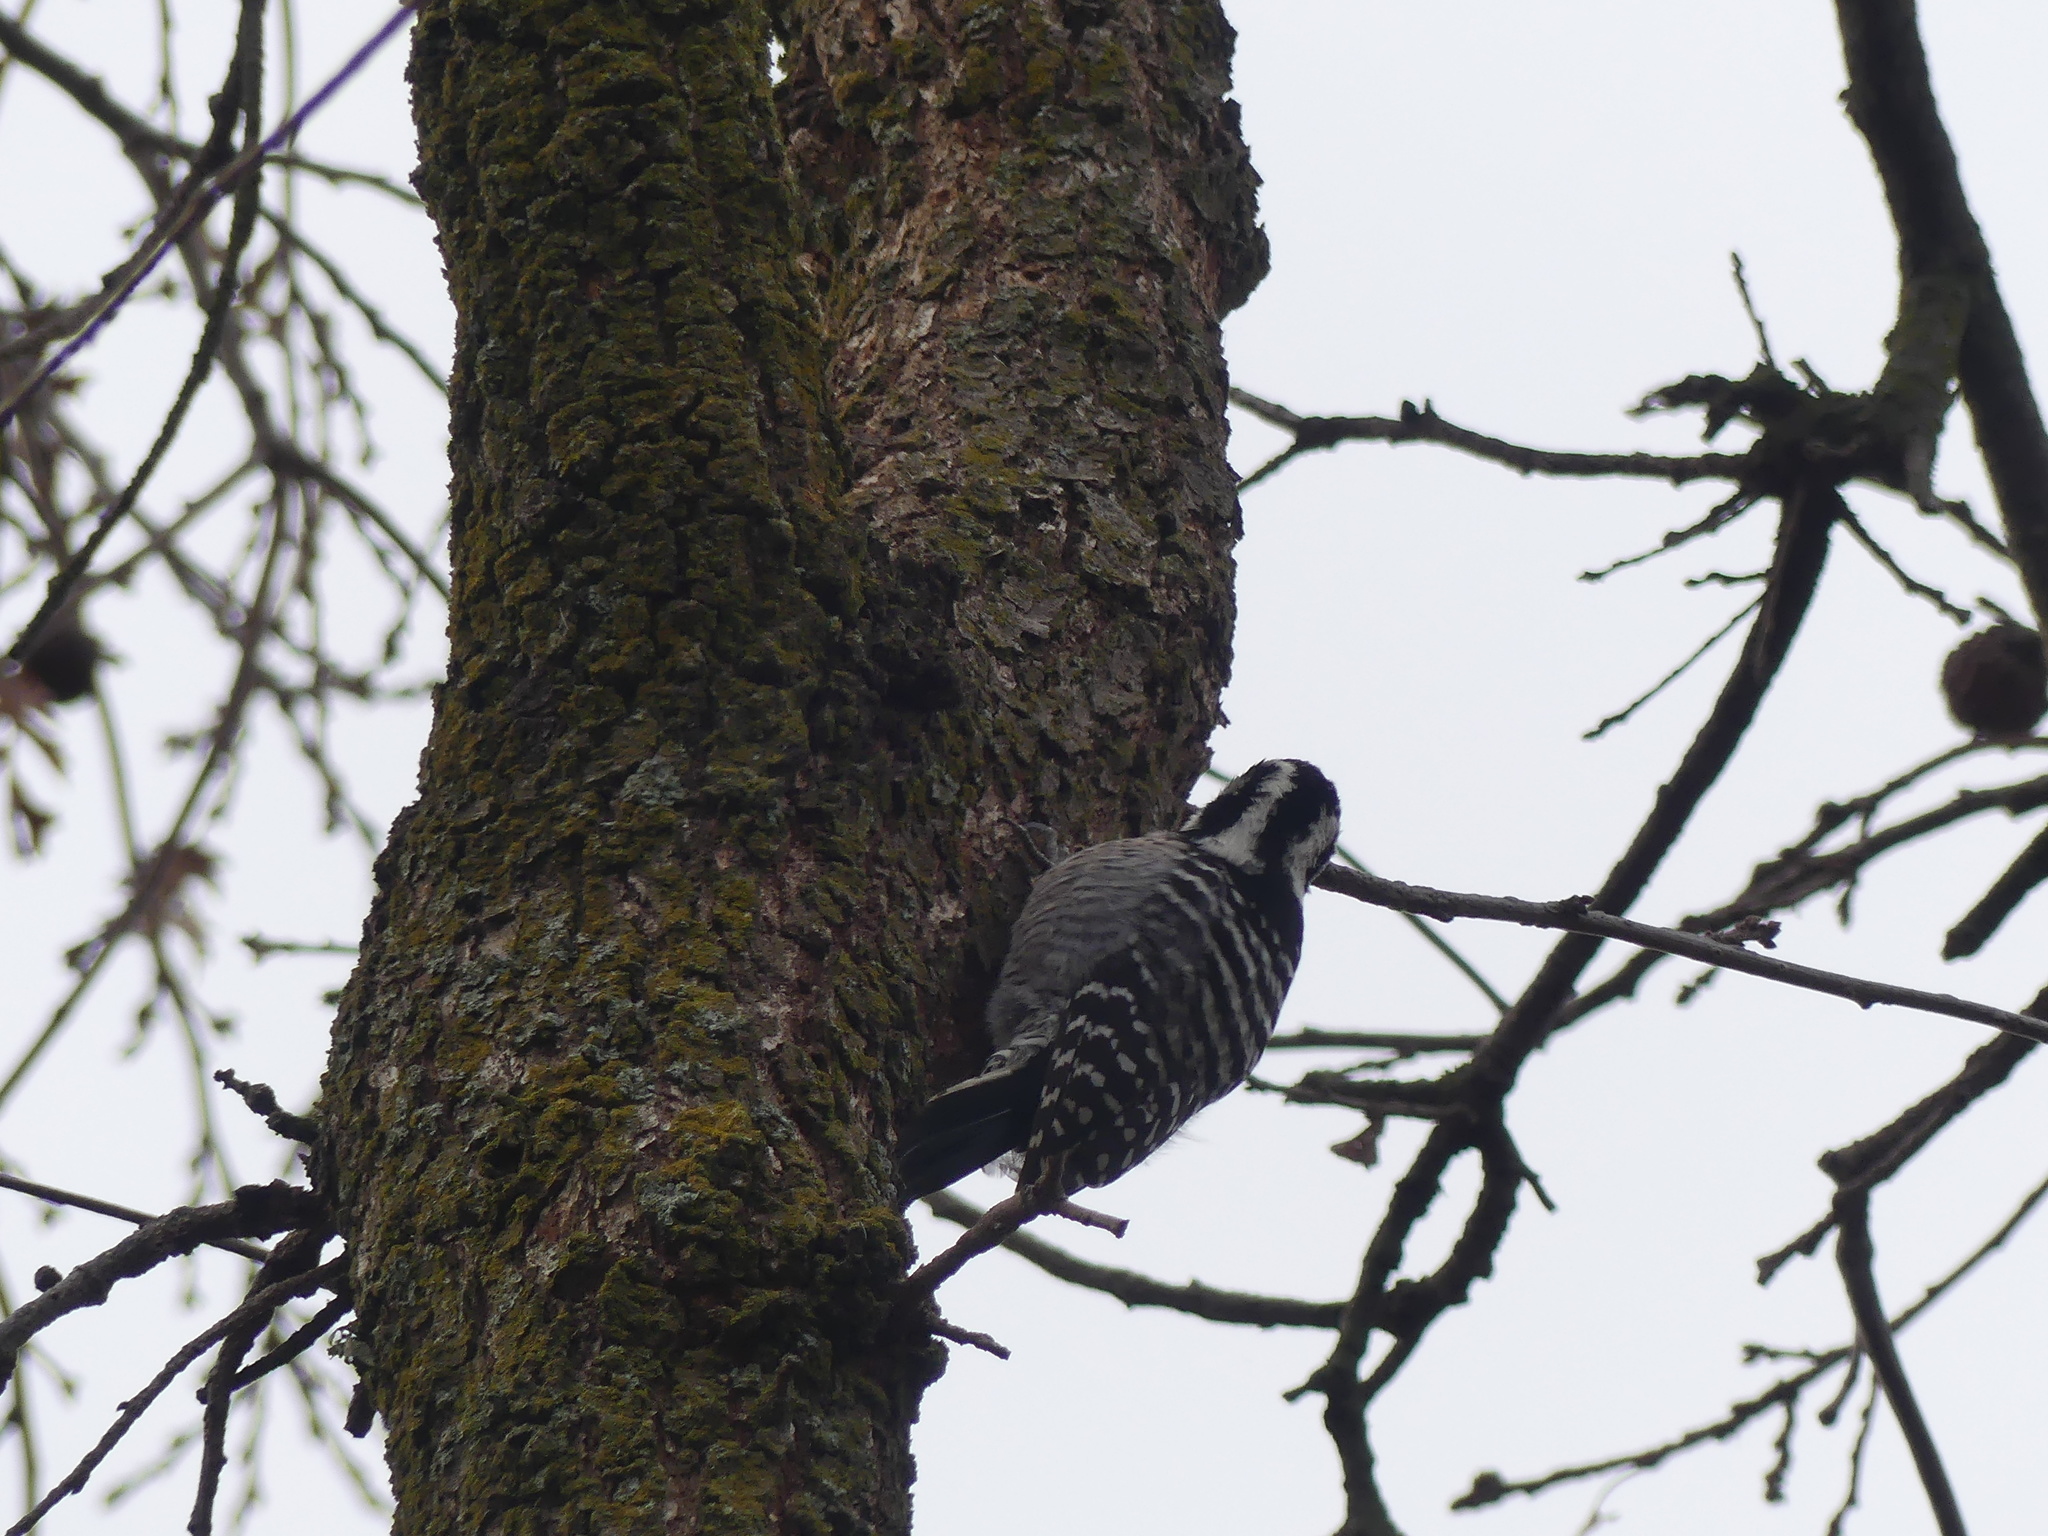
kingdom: Animalia
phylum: Chordata
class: Aves
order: Piciformes
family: Picidae
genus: Dryobates
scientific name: Dryobates nuttallii
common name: Nuttall's woodpecker
